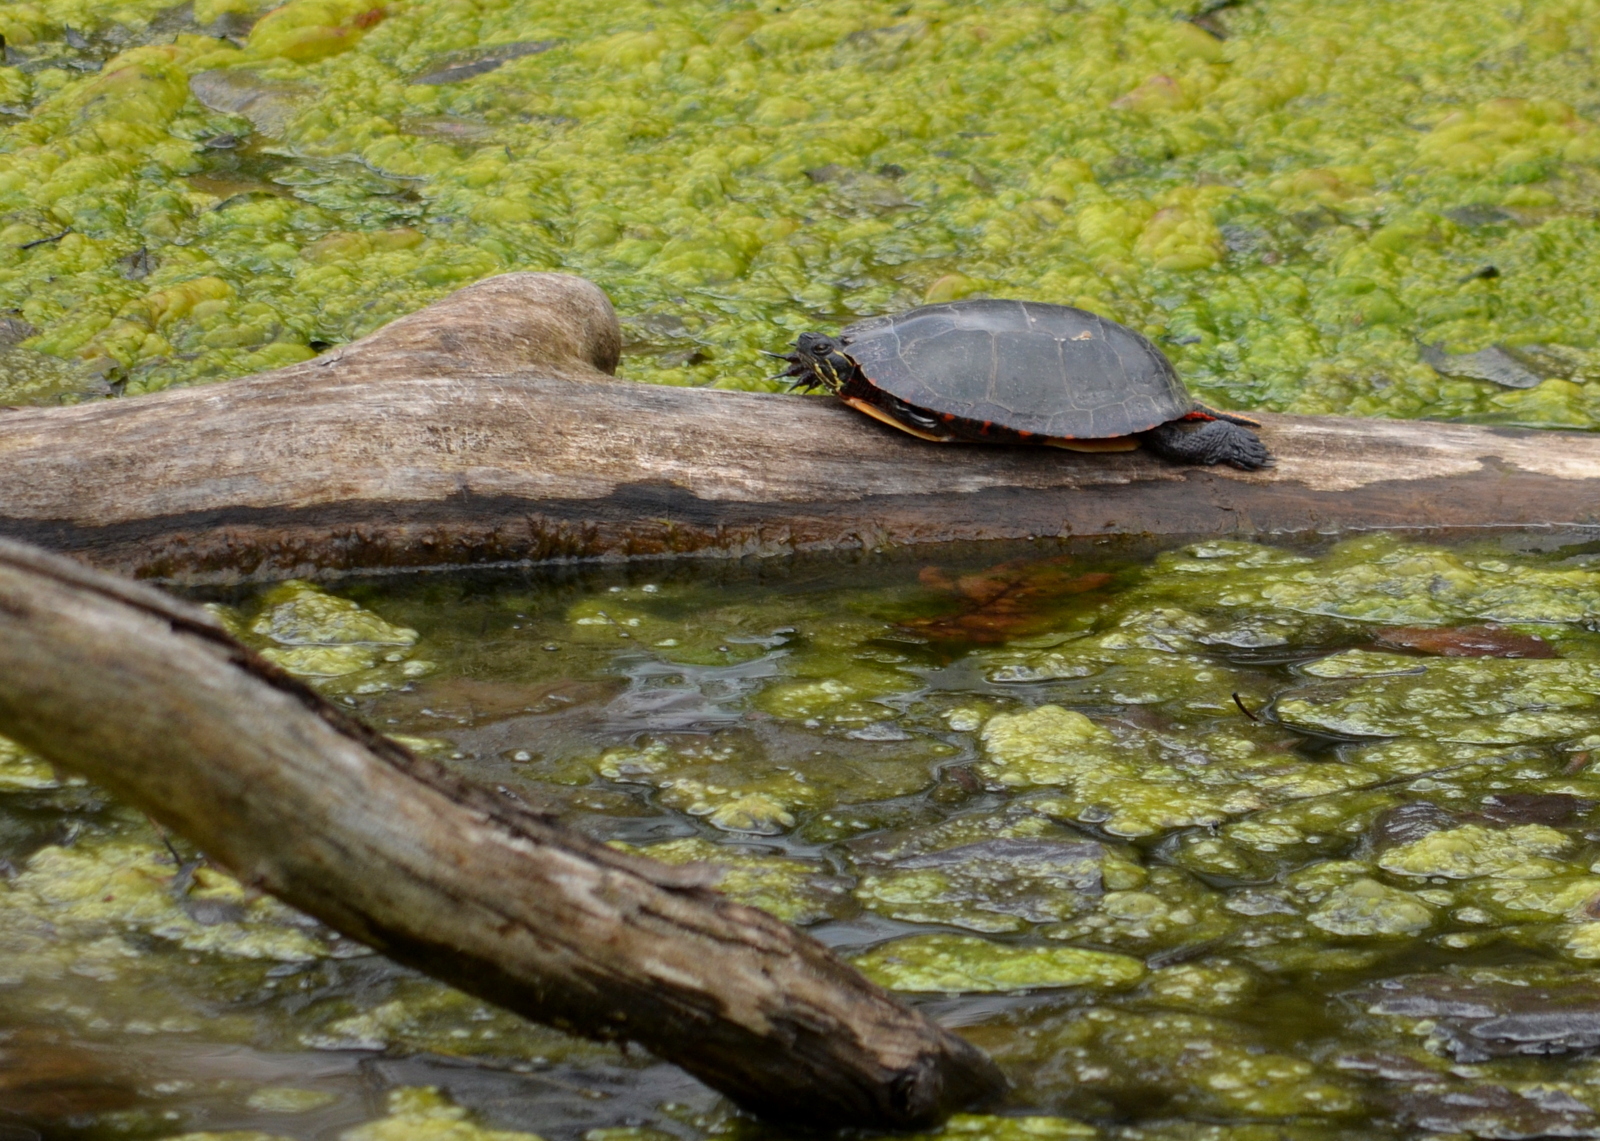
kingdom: Animalia
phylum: Chordata
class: Testudines
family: Emydidae
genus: Chrysemys
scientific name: Chrysemys picta
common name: Painted turtle
